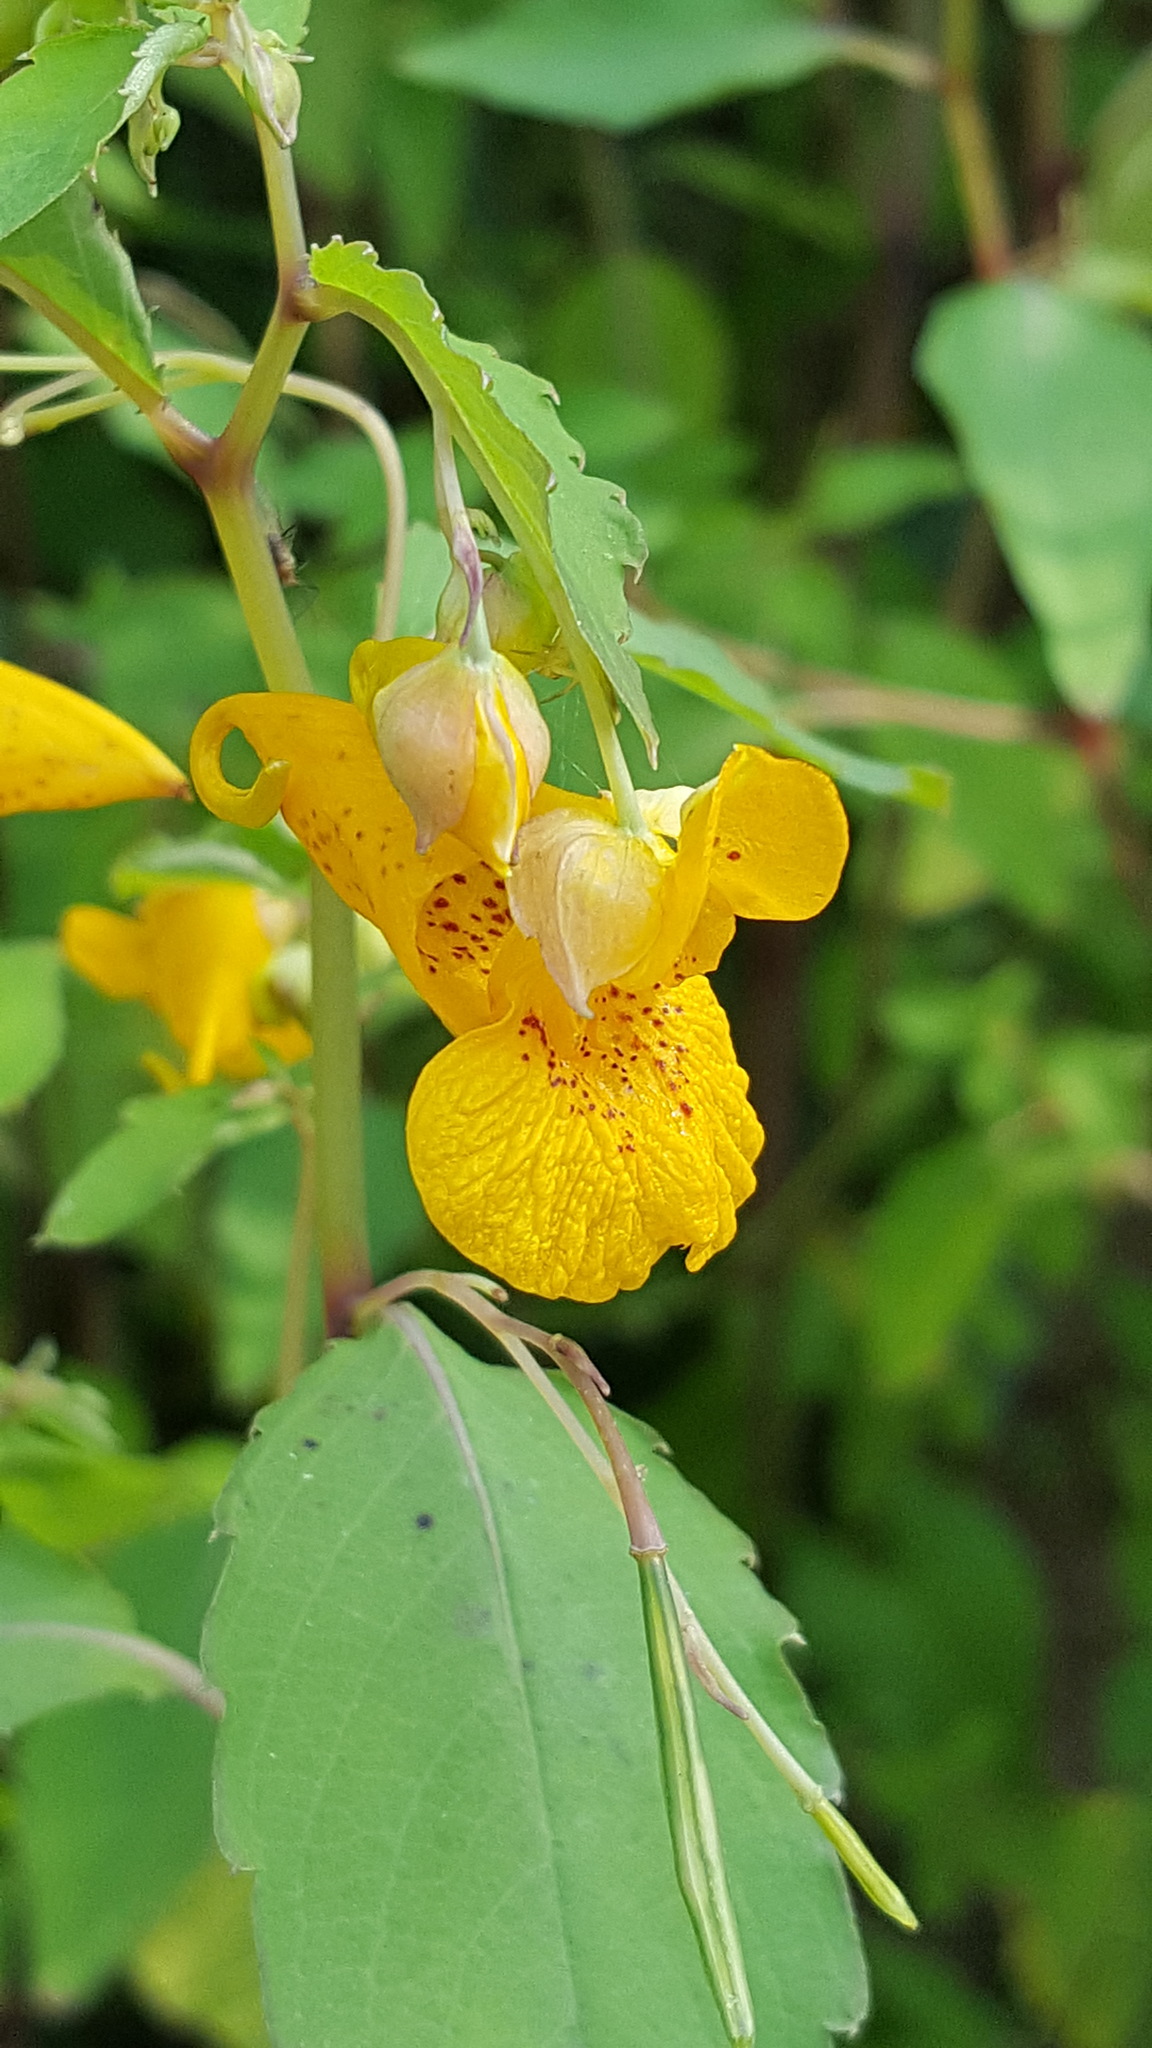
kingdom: Plantae
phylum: Tracheophyta
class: Magnoliopsida
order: Ericales
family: Balsaminaceae
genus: Impatiens
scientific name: Impatiens capensis
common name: Orange balsam
